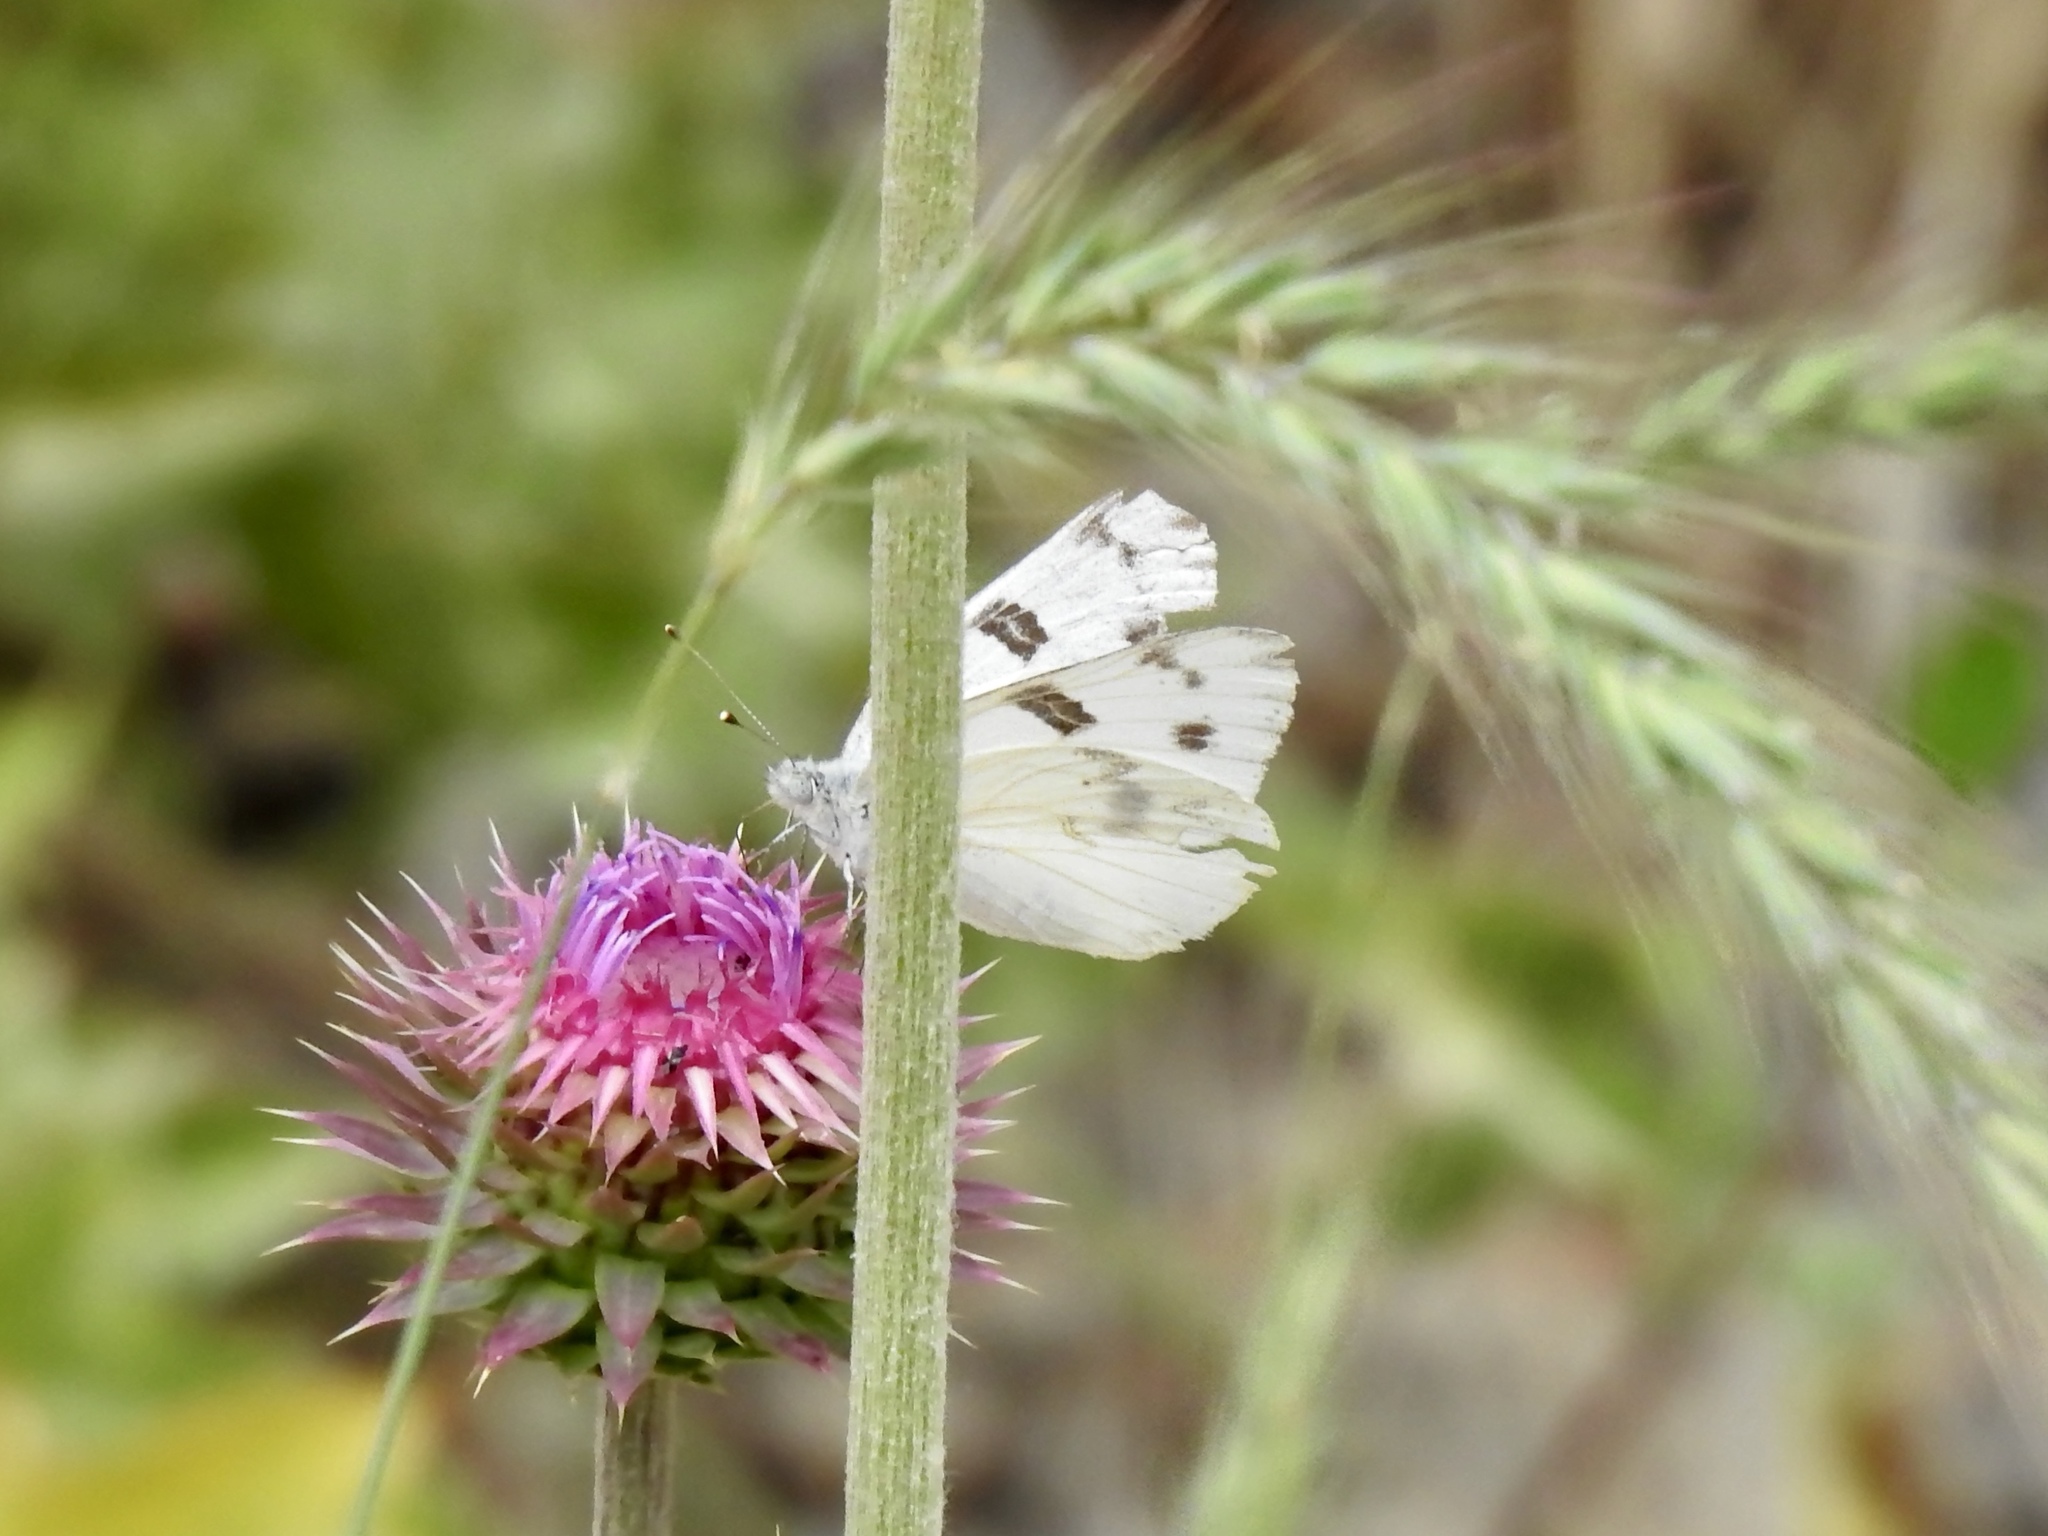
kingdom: Animalia
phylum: Arthropoda
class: Insecta
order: Lepidoptera
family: Pieridae
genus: Pontia
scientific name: Pontia protodice
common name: Checkered white
